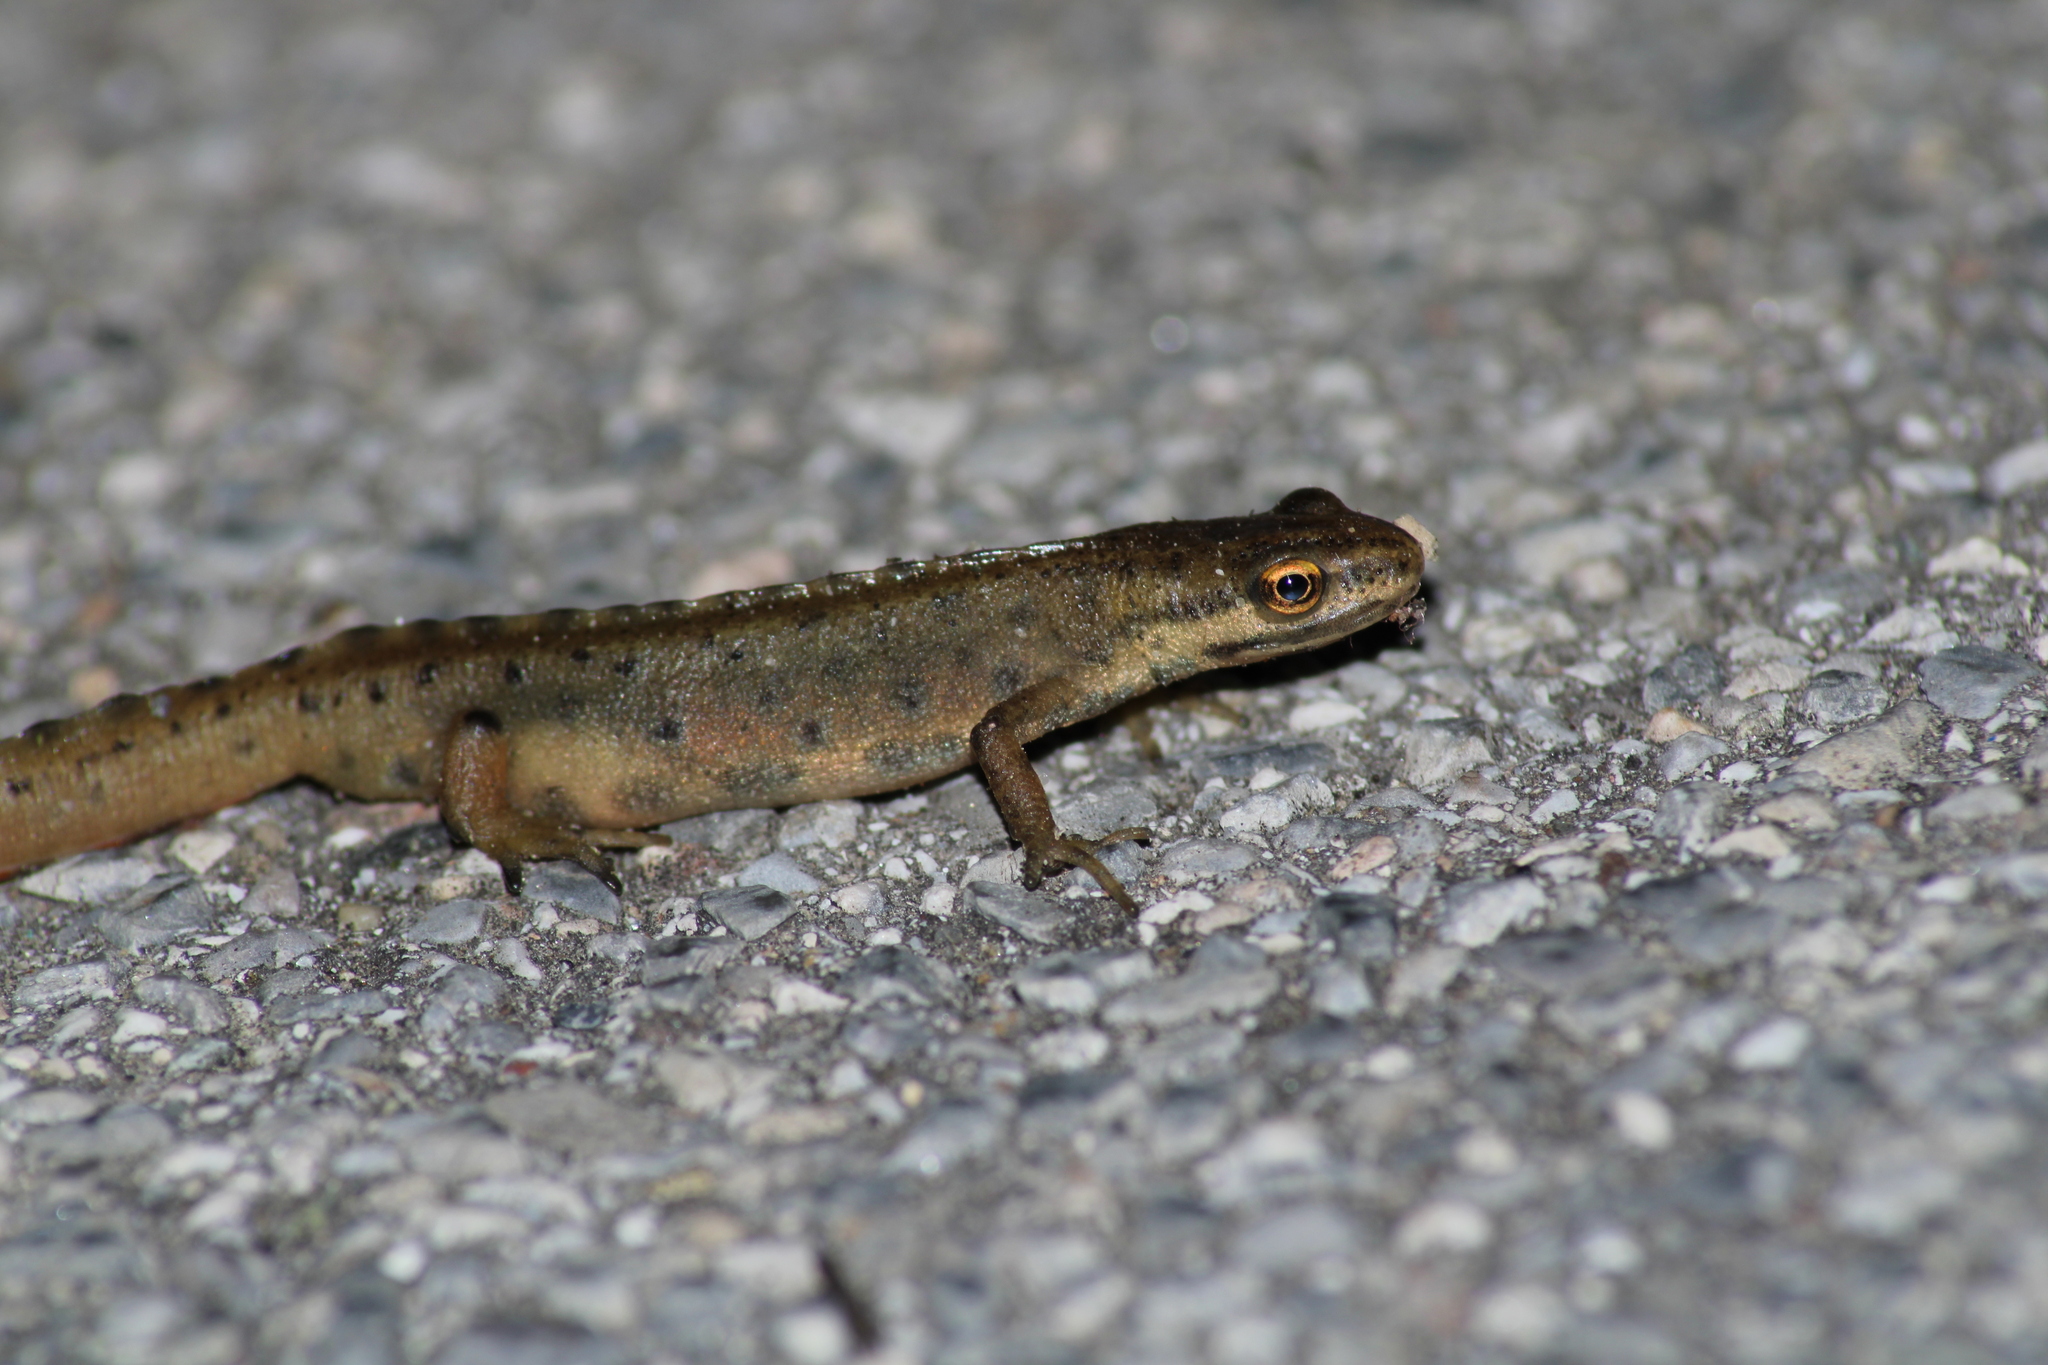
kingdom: Animalia
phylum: Chordata
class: Amphibia
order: Caudata
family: Salamandridae
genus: Lissotriton
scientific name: Lissotriton vulgaris
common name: Smooth newt
